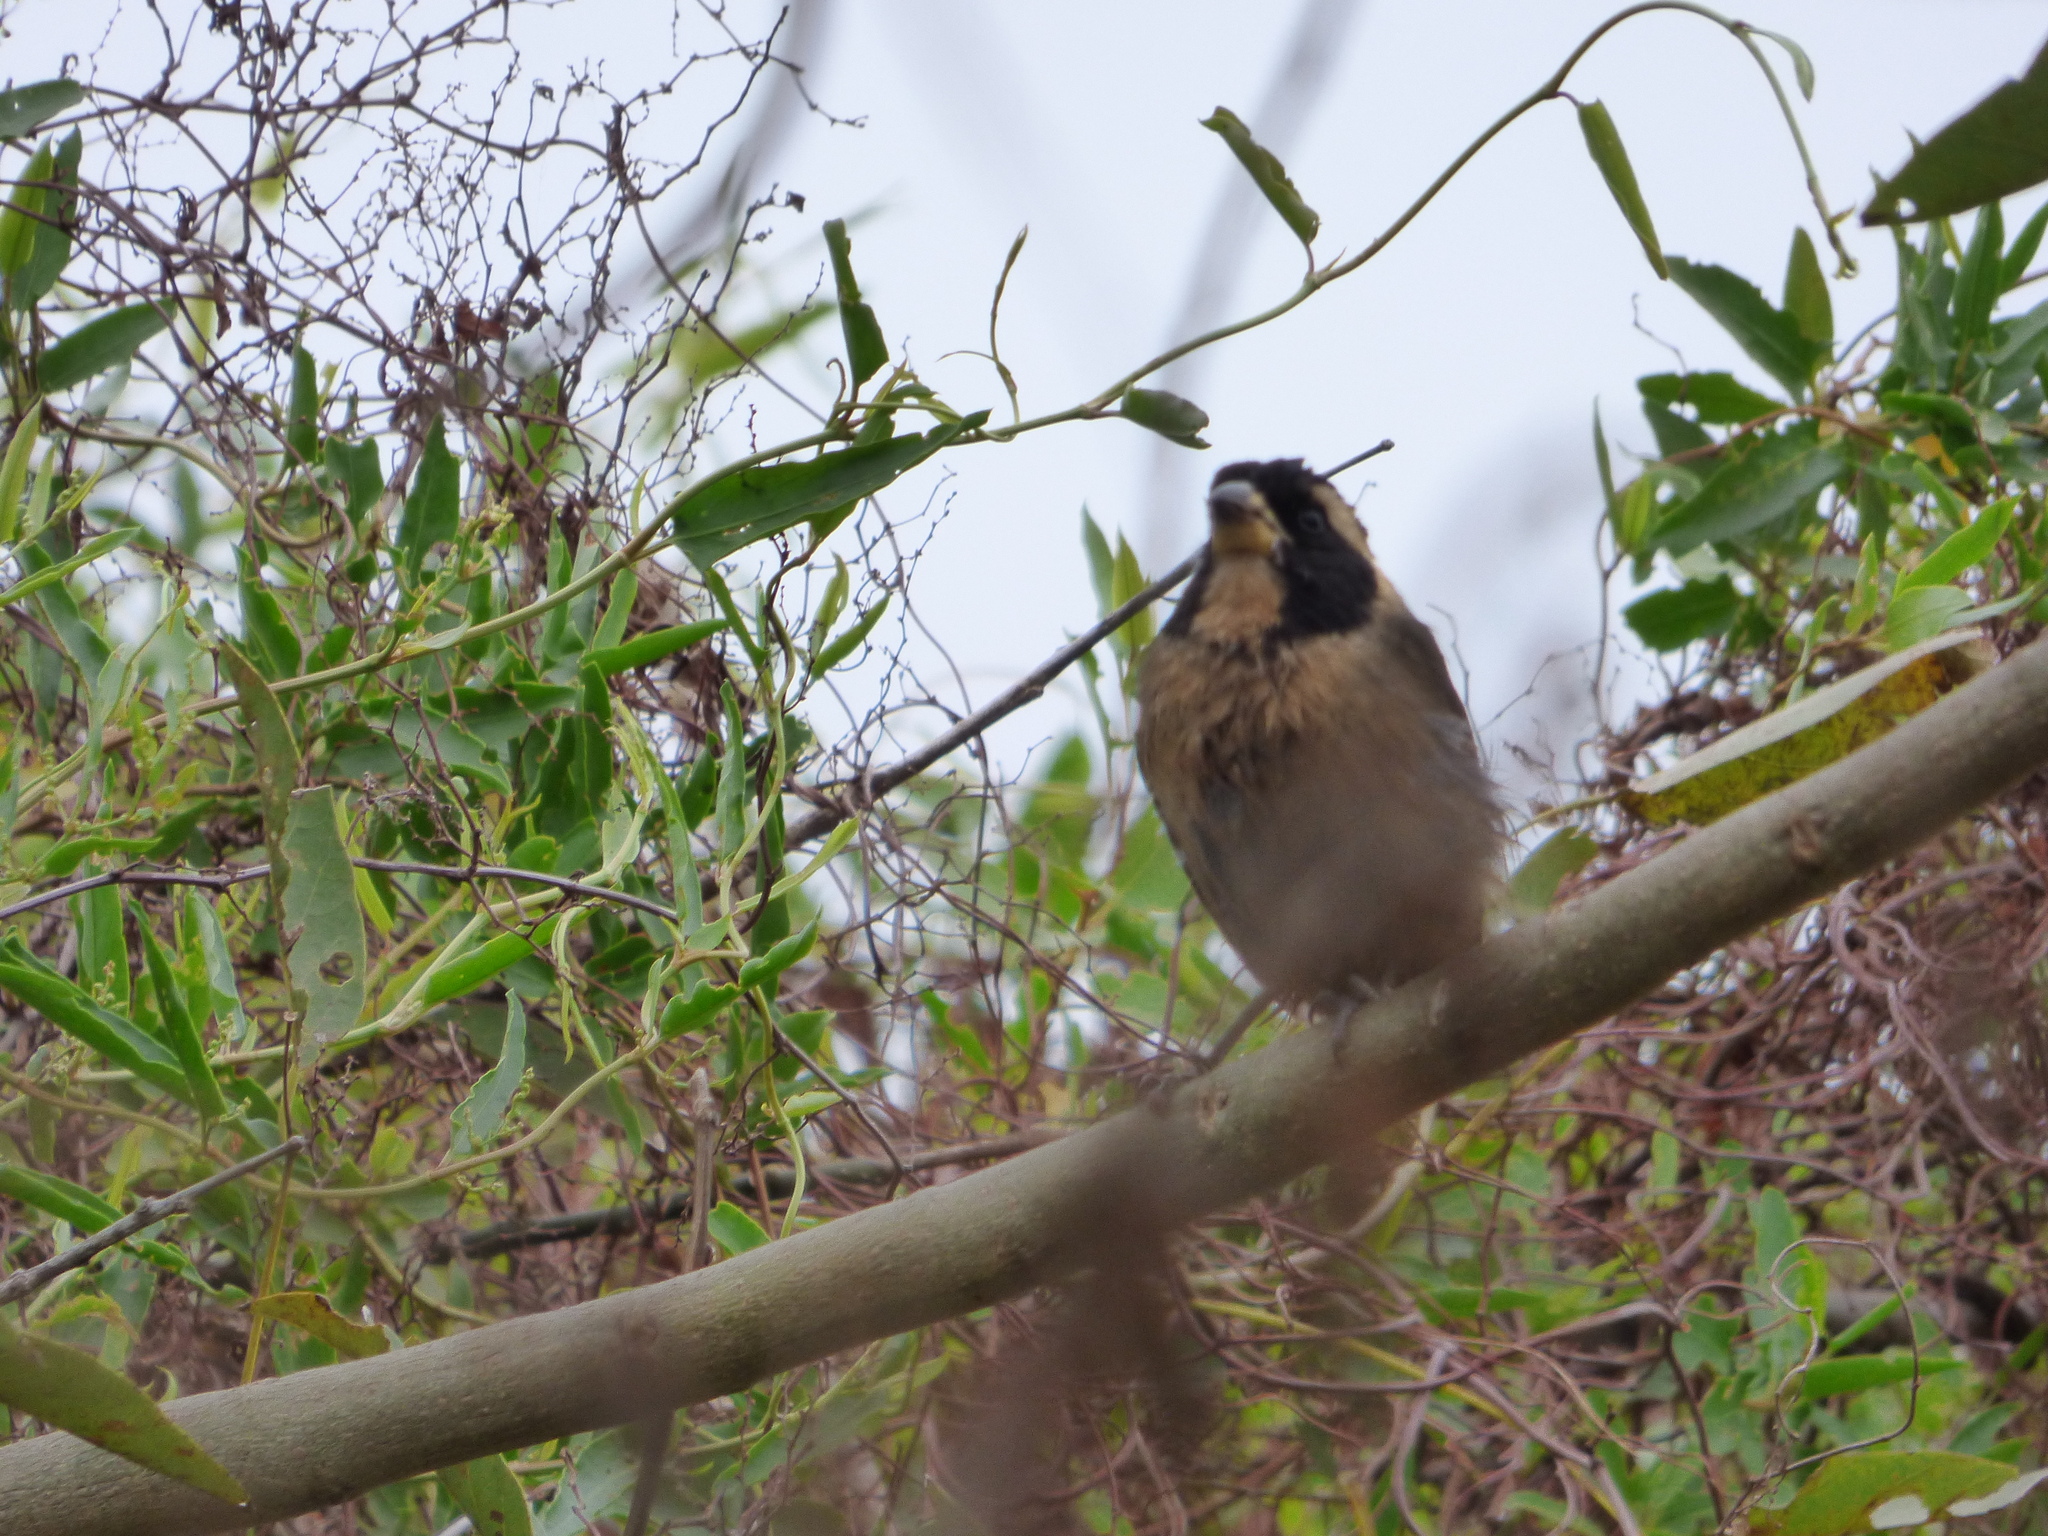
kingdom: Animalia
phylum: Chordata
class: Aves
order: Passeriformes
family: Thraupidae
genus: Saltator
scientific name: Saltator aurantiirostris
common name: Golden-billed saltator
